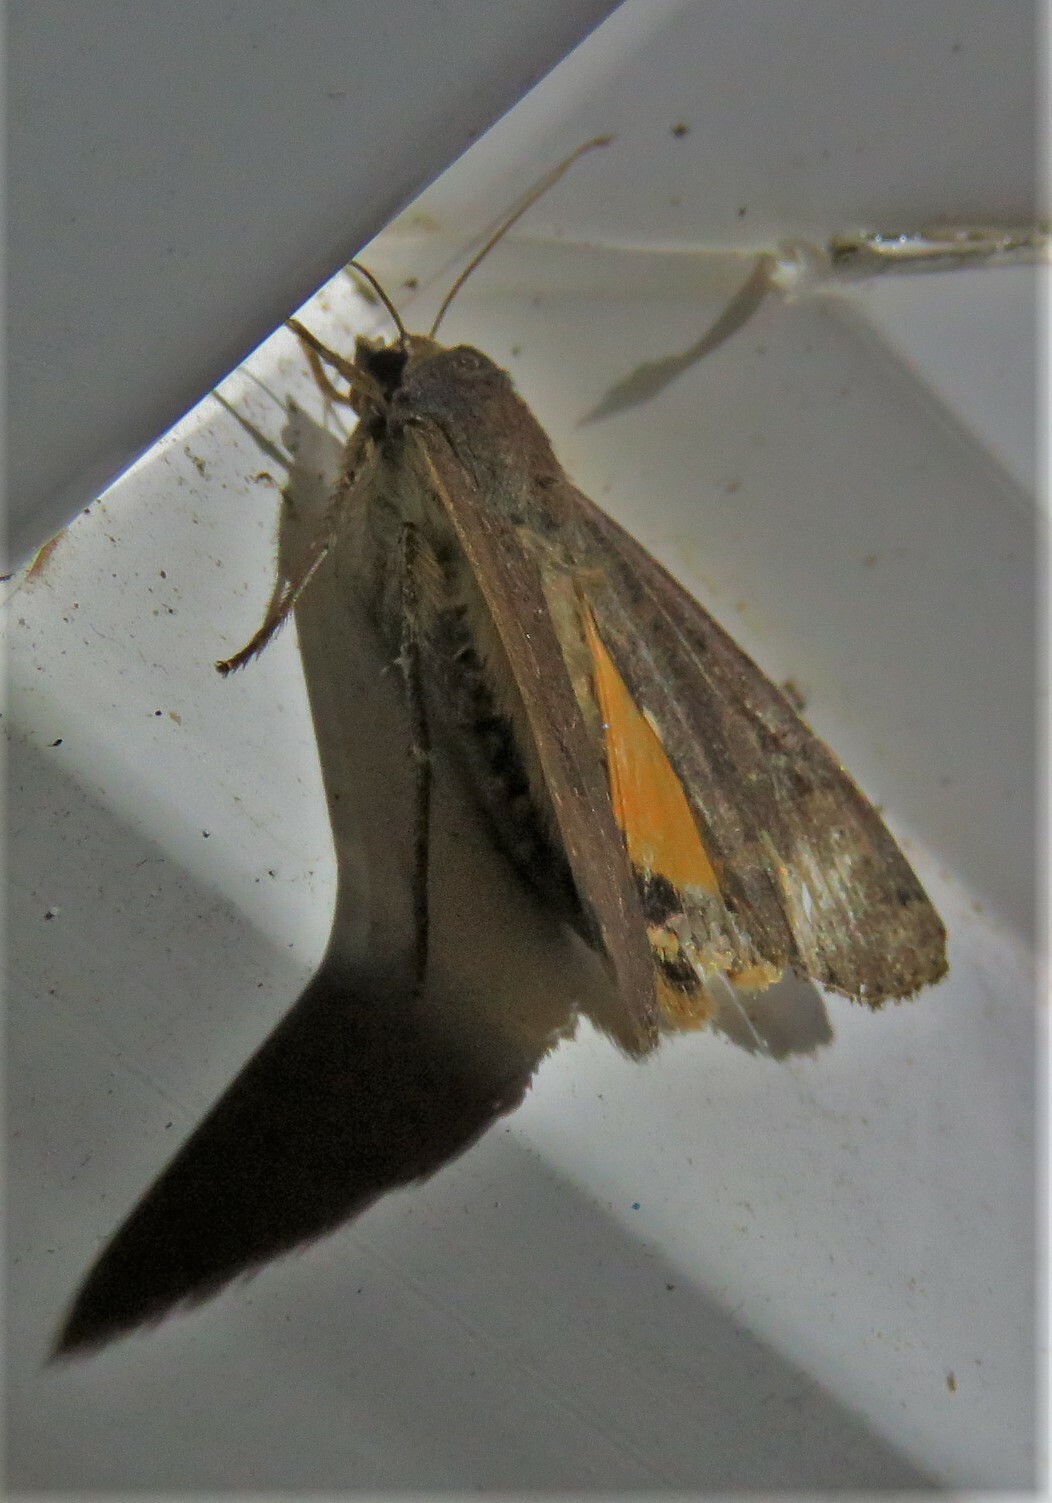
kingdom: Animalia
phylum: Arthropoda
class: Insecta
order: Lepidoptera
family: Noctuidae
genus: Noctua
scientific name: Noctua pronuba
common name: Large yellow underwing
